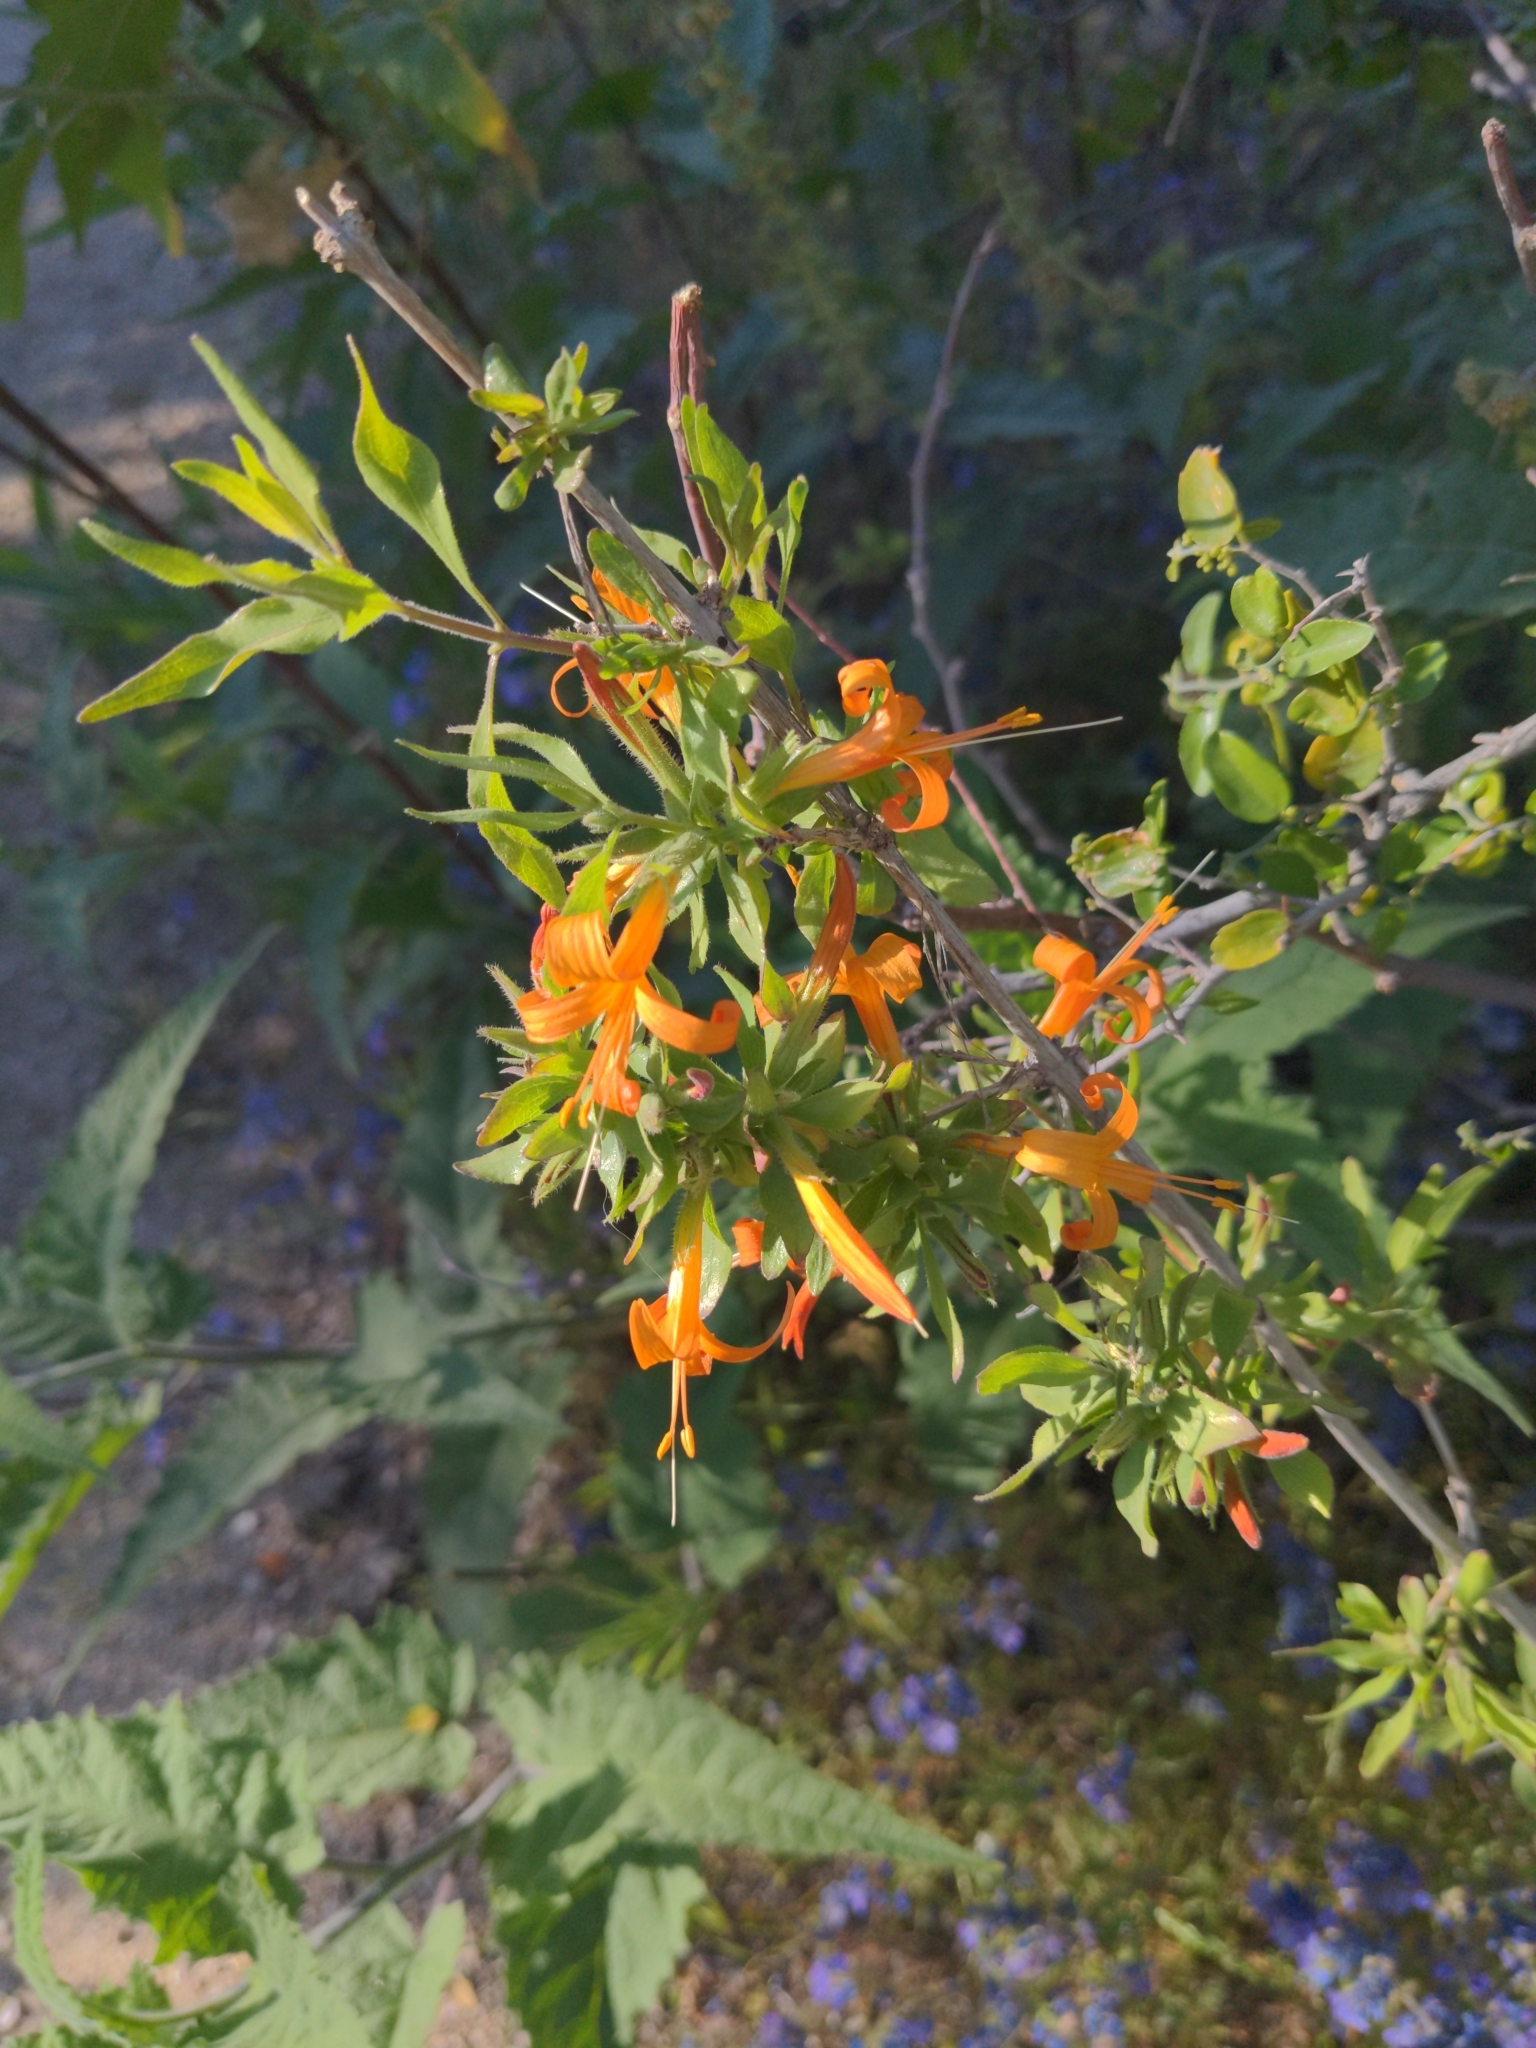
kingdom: Plantae
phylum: Tracheophyta
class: Magnoliopsida
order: Lamiales
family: Acanthaceae
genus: Anisacanthus
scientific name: Anisacanthus thurberi
